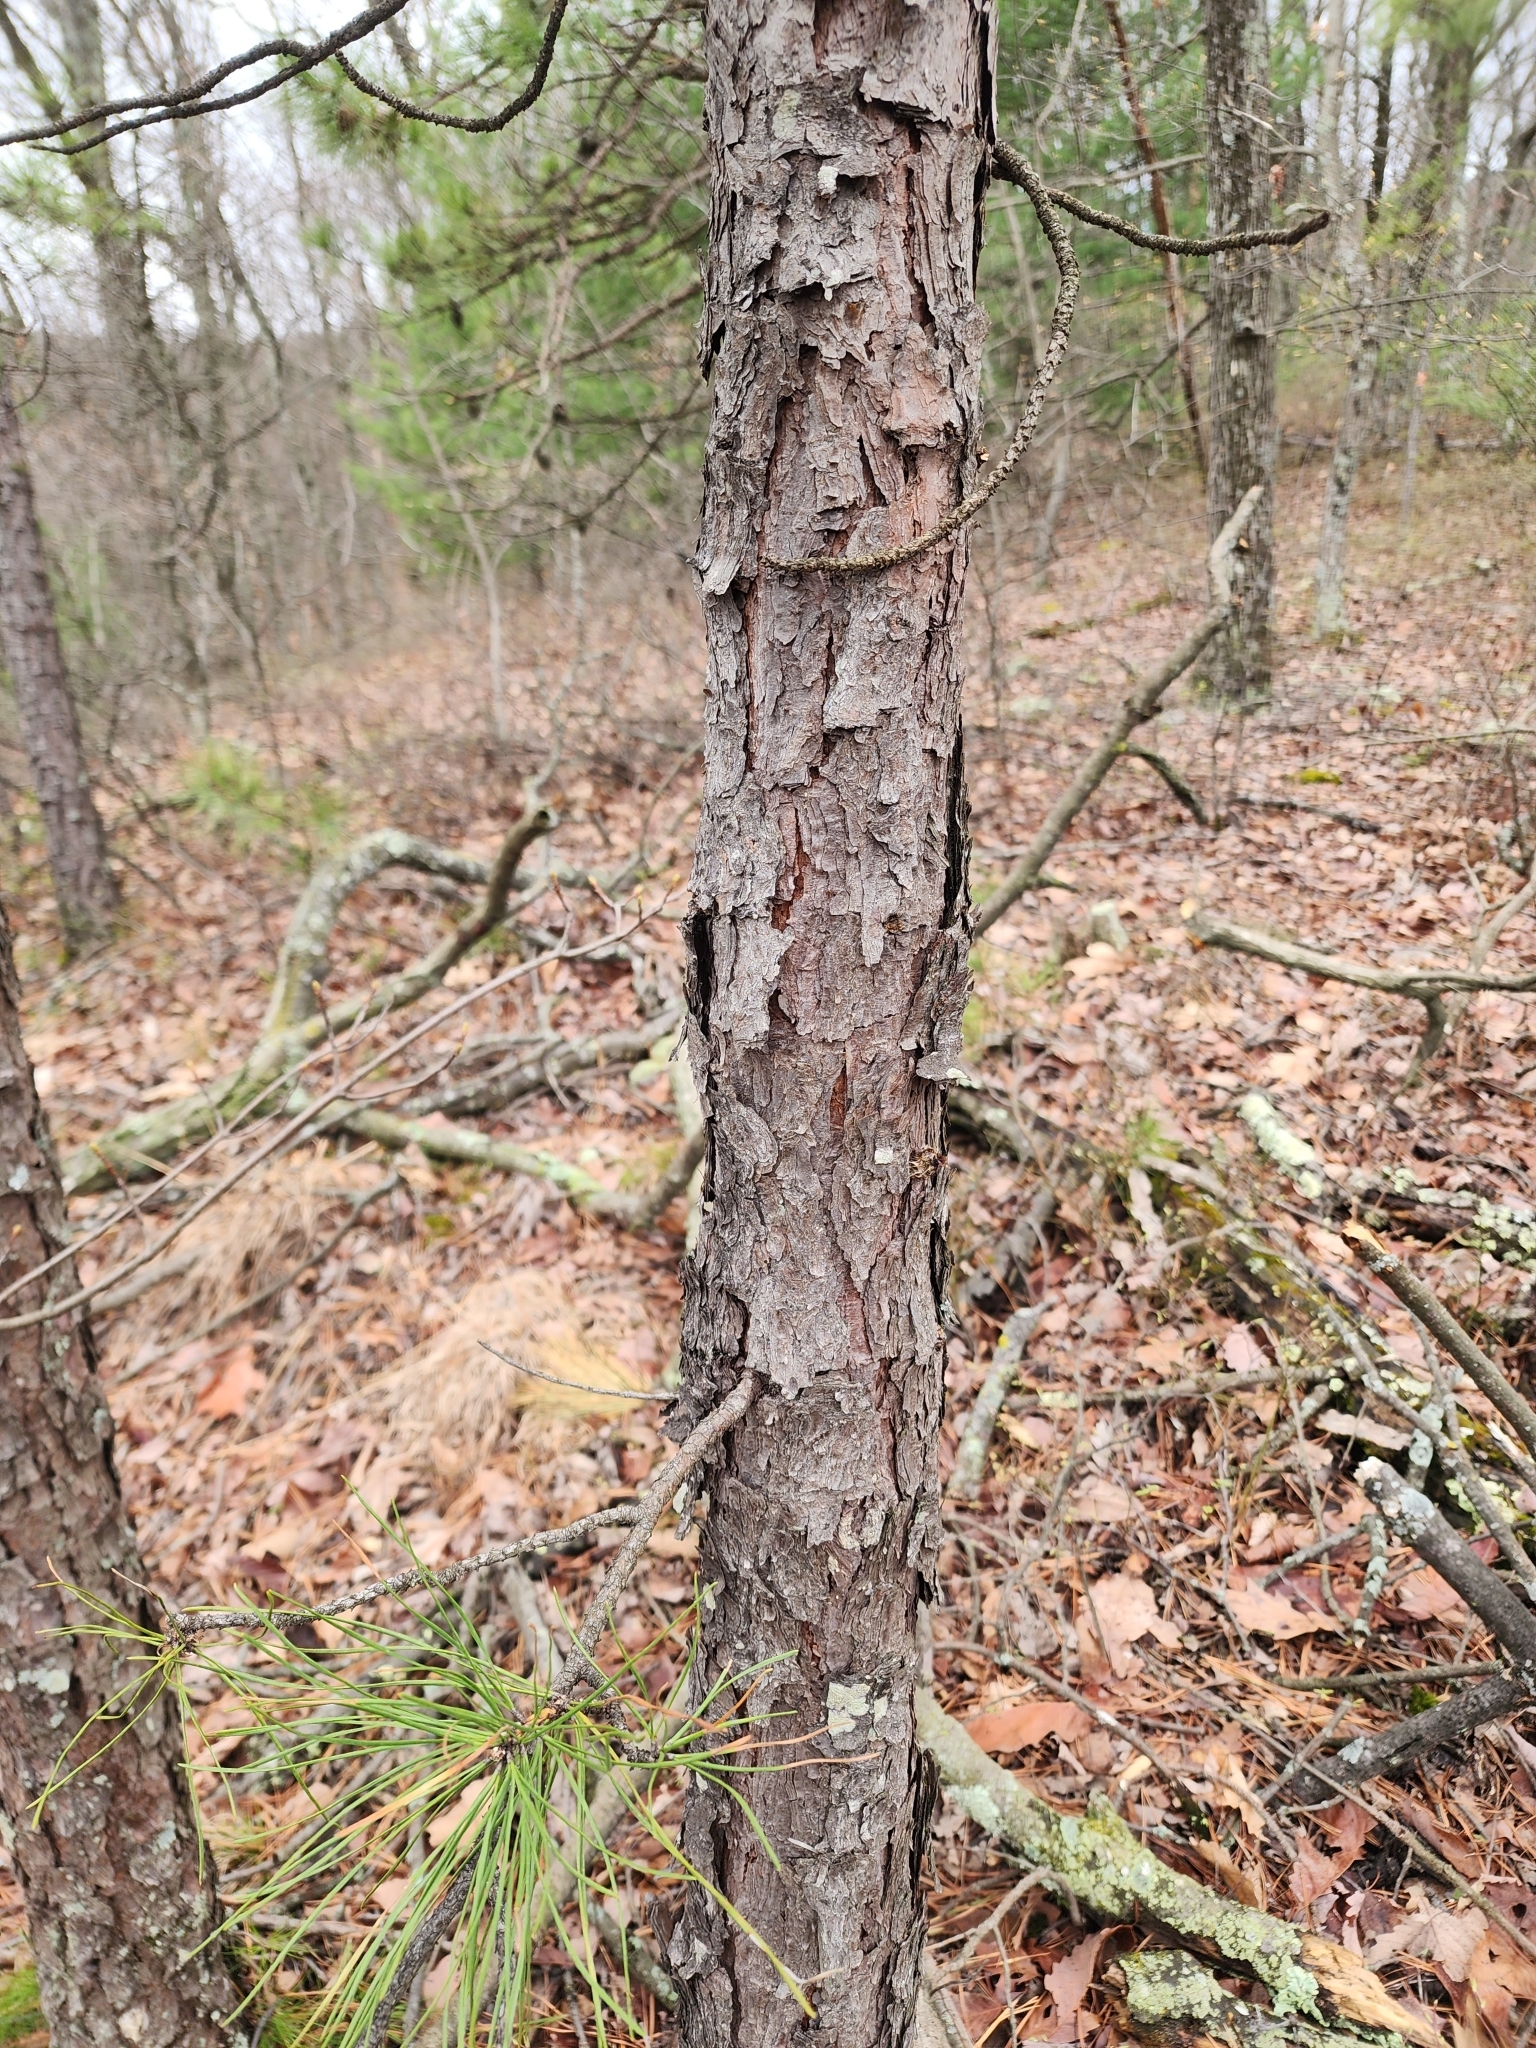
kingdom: Plantae
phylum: Tracheophyta
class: Pinopsida
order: Pinales
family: Pinaceae
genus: Pinus
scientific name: Pinus rigida
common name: Pitch pine
